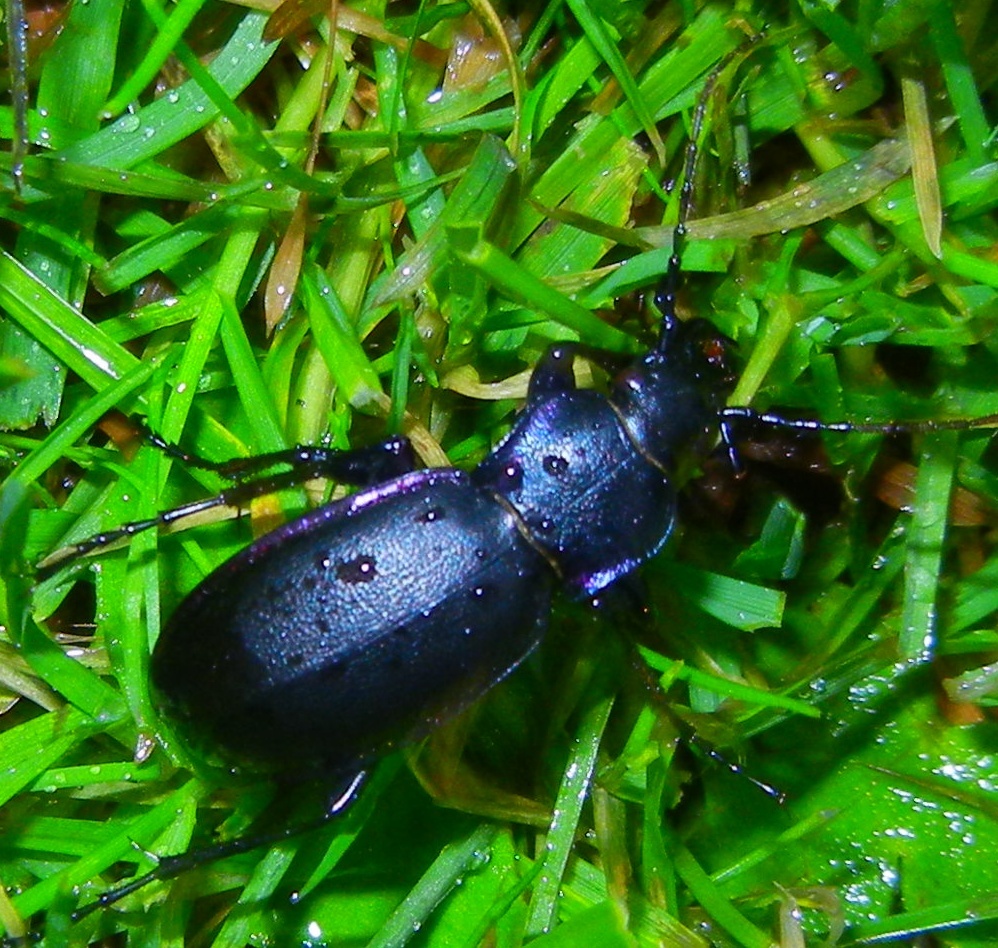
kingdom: Animalia
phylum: Arthropoda
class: Insecta
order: Coleoptera
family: Carabidae
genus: Carabus
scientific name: Carabus violaceus
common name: Violet ground beetle
